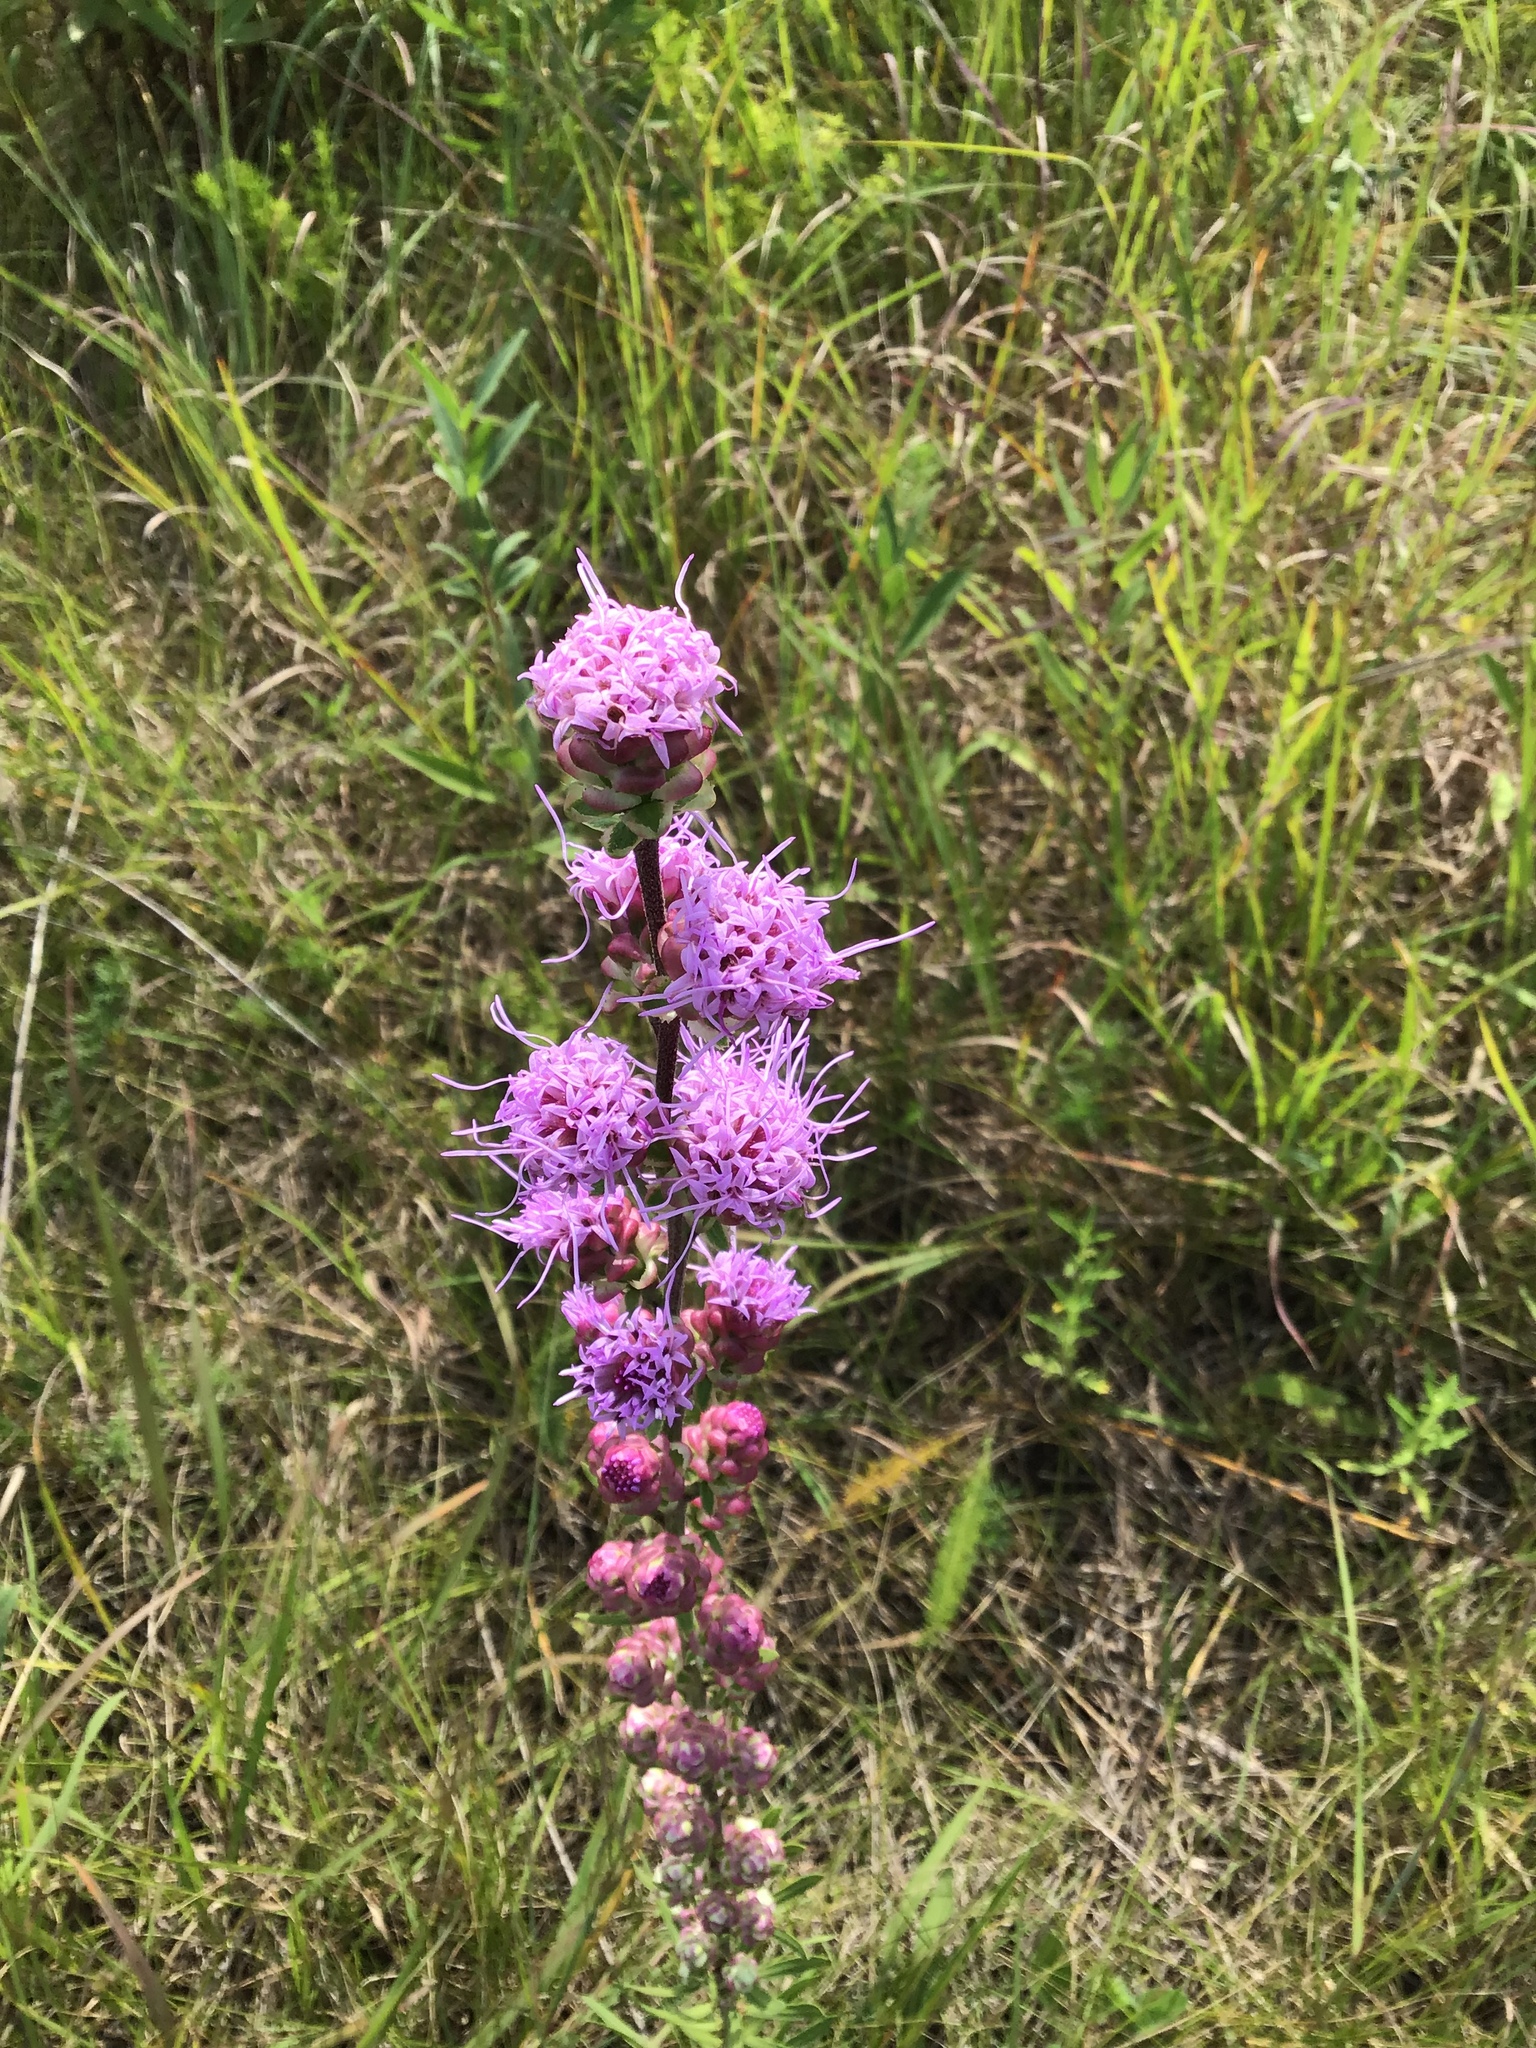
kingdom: Plantae
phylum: Tracheophyta
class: Magnoliopsida
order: Asterales
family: Asteraceae
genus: Liatris
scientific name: Liatris aspera
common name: Lacerate blazing-star
